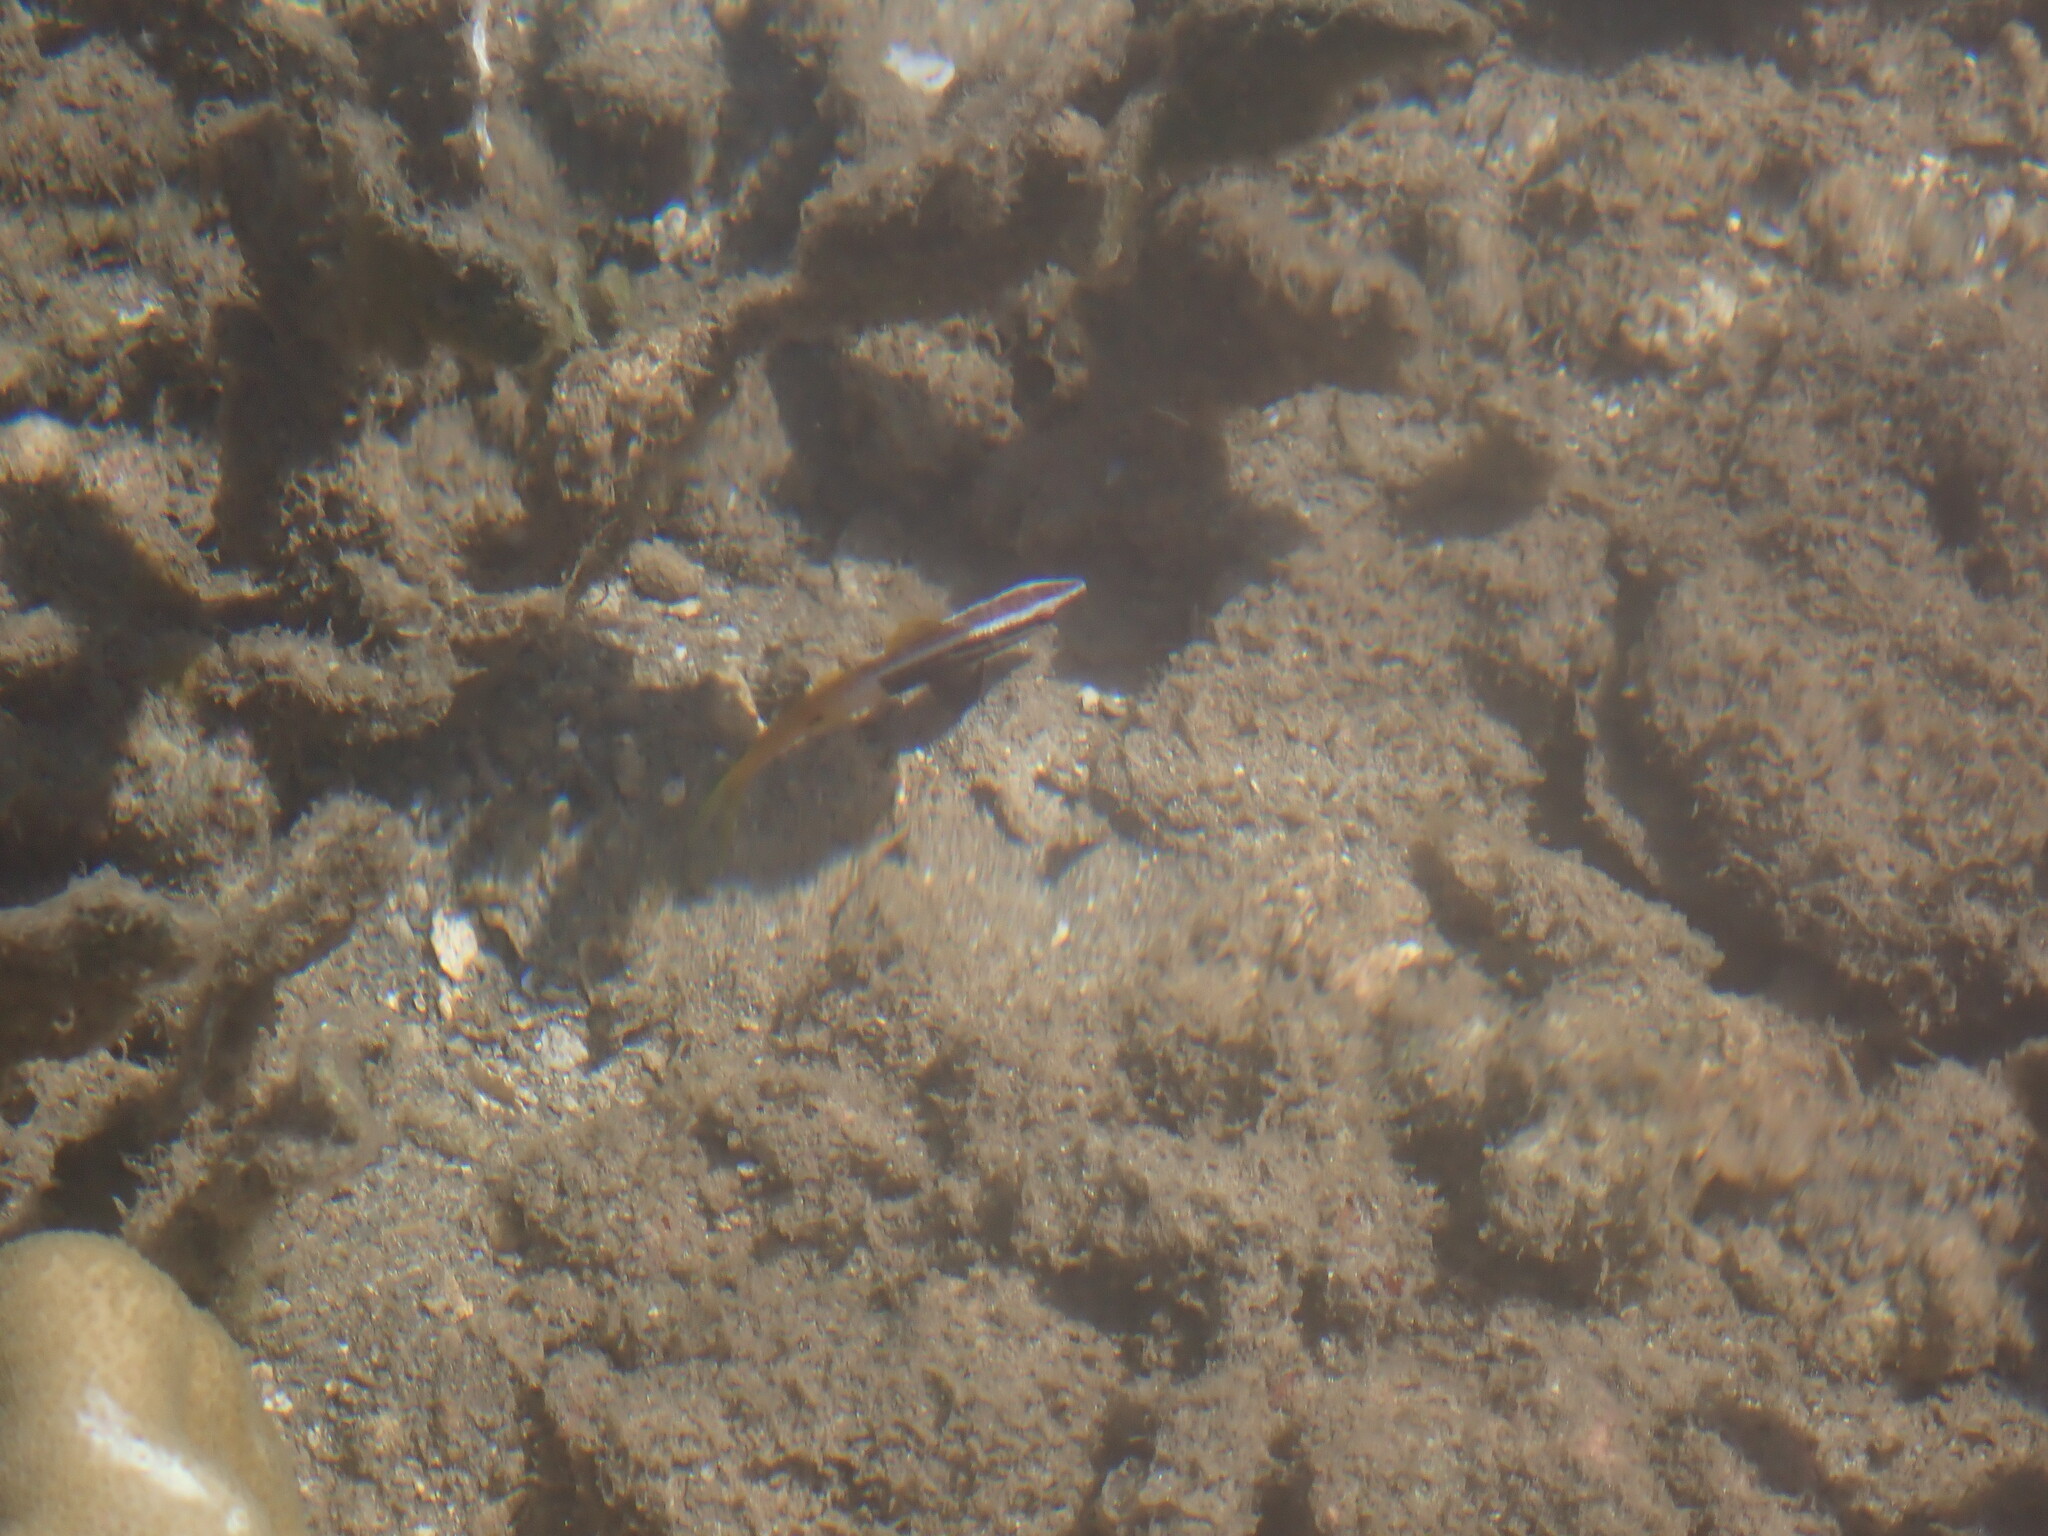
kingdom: Animalia
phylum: Chordata
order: Perciformes
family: Mullidae
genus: Parupeneus
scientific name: Parupeneus barberinoides
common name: Half-and-half goatfish
